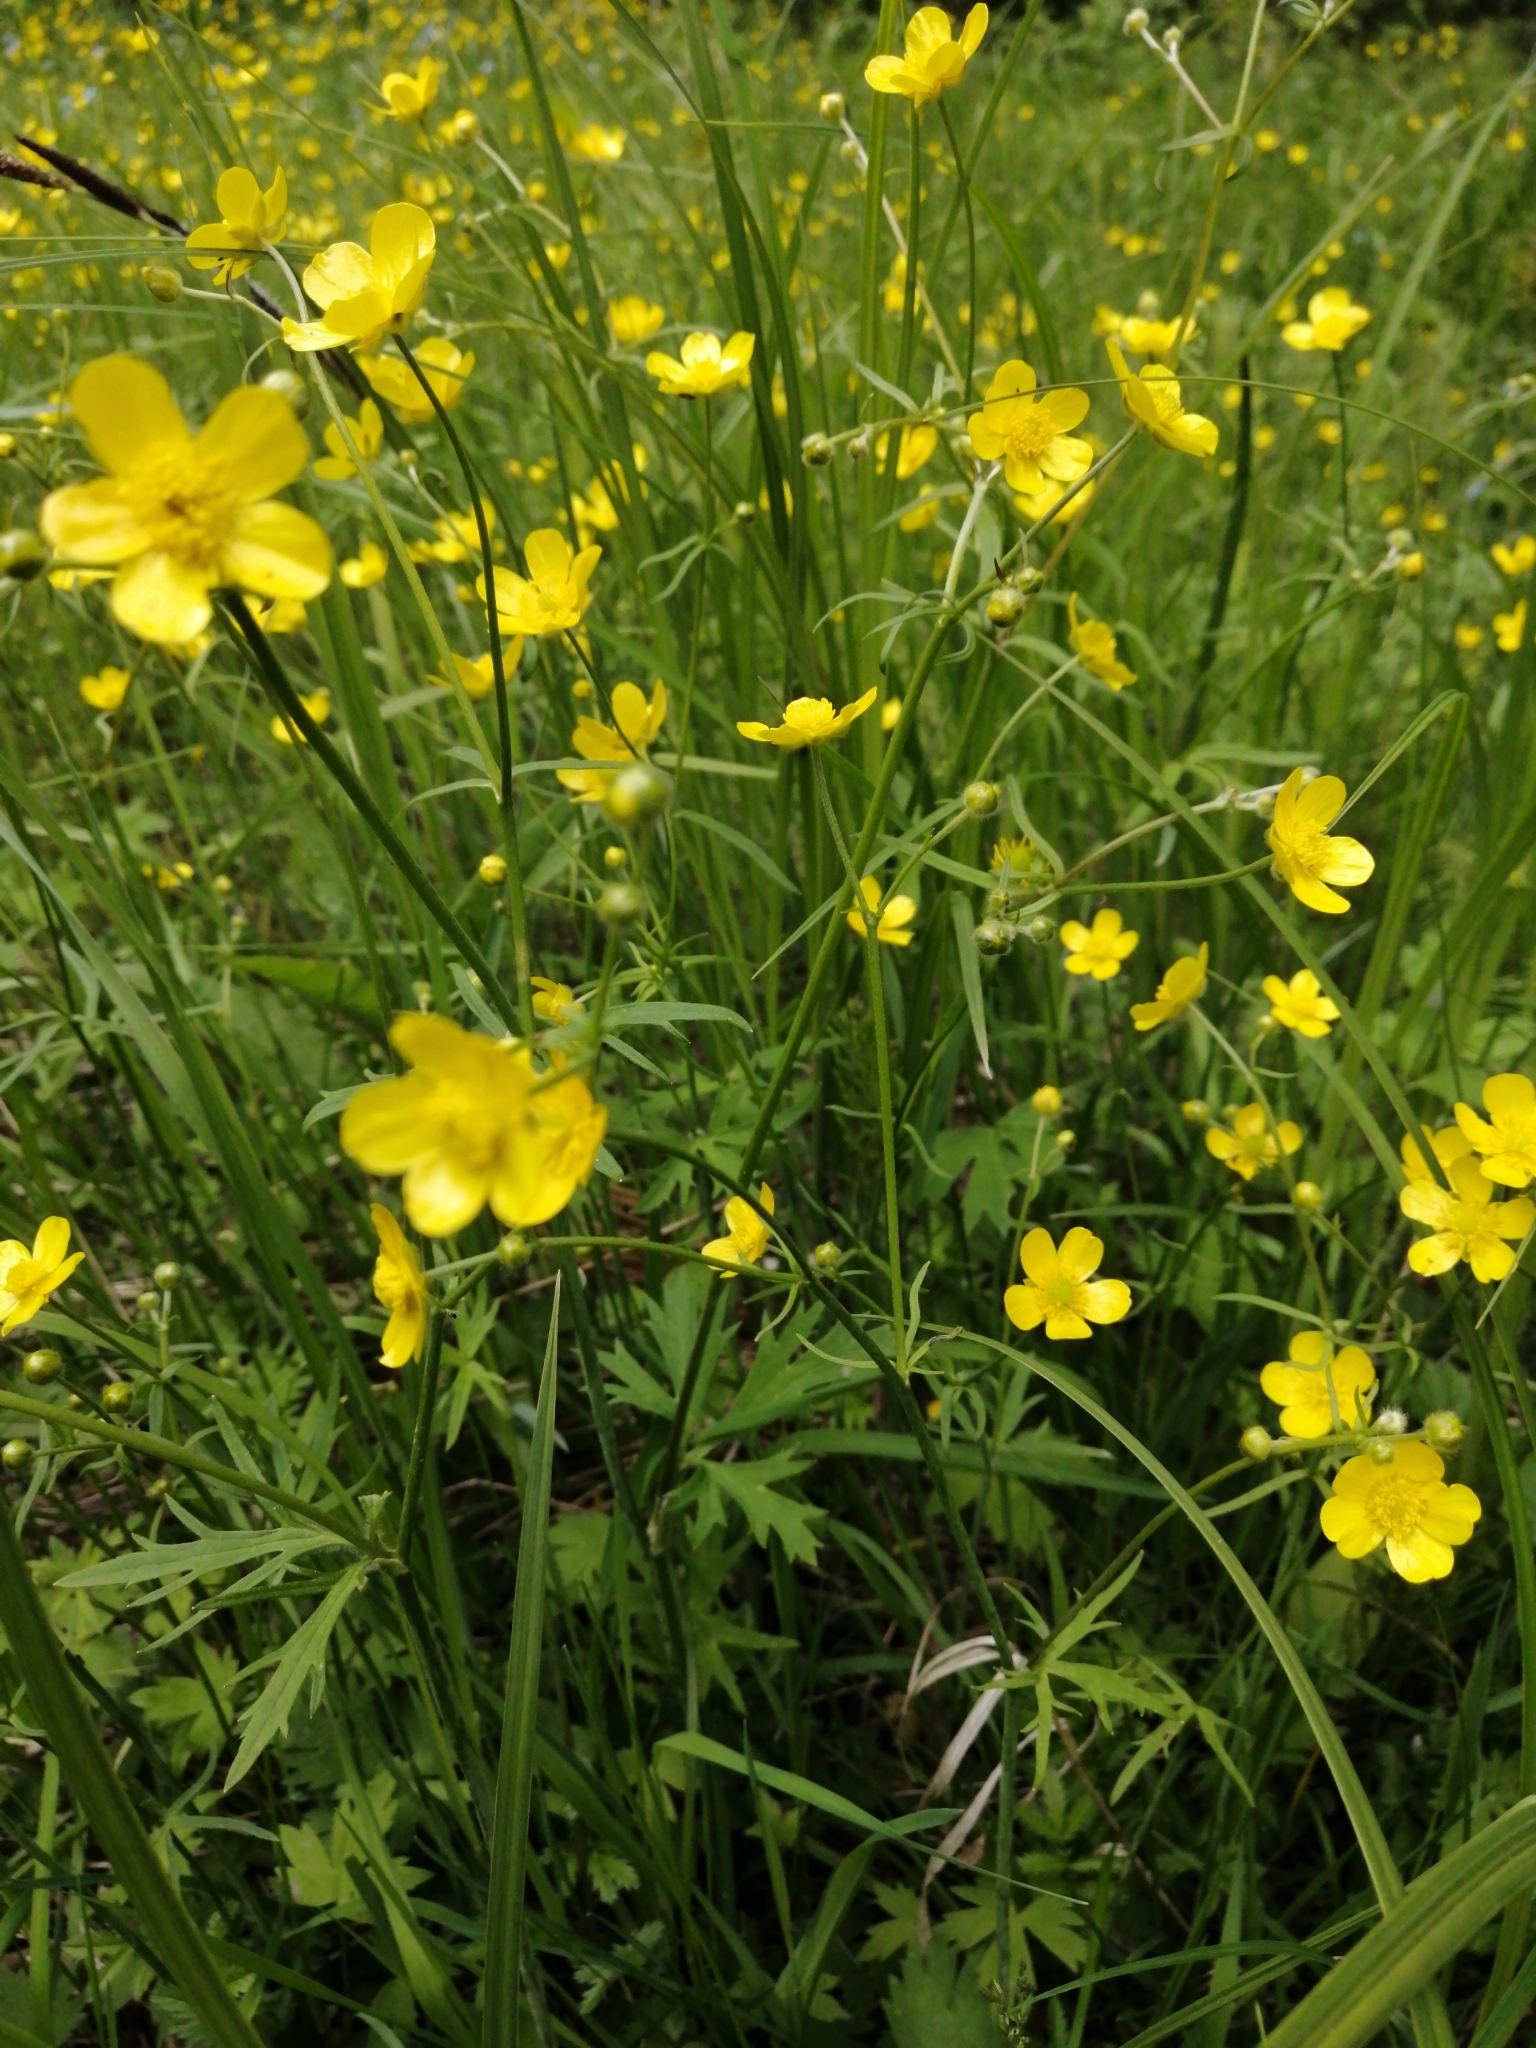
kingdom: Plantae
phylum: Tracheophyta
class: Magnoliopsida
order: Ranunculales
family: Ranunculaceae
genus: Ranunculus
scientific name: Ranunculus acris
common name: Meadow buttercup
